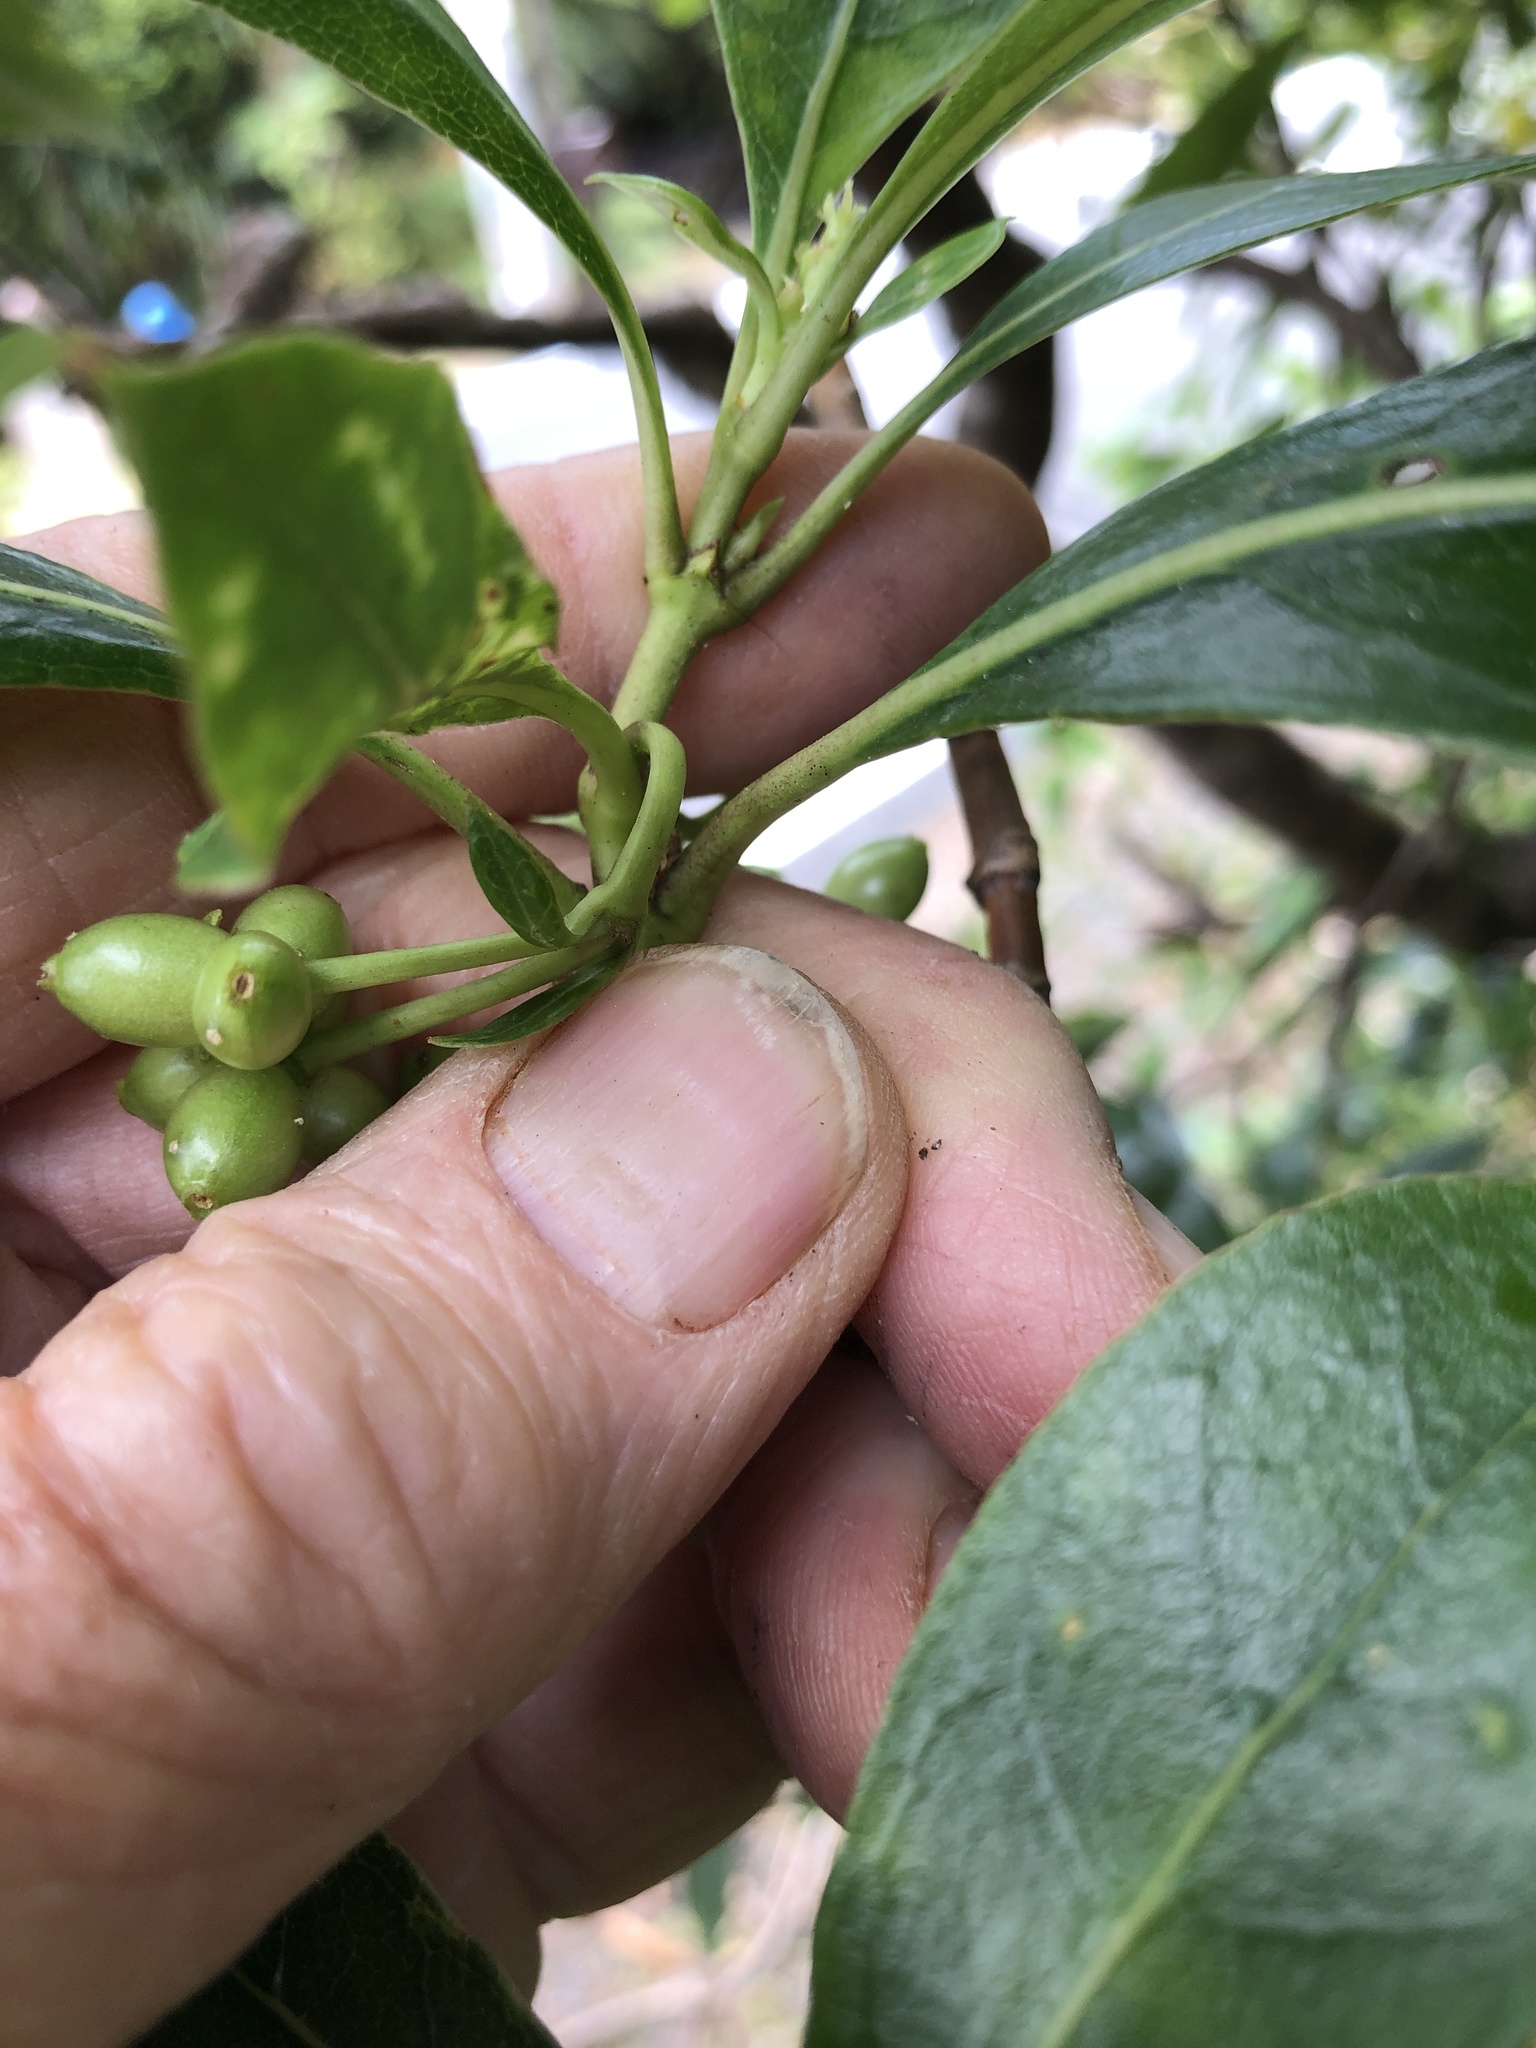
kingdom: Plantae
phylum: Tracheophyta
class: Magnoliopsida
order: Gentianales
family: Rubiaceae
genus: Coprosma
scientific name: Coprosma lucida
